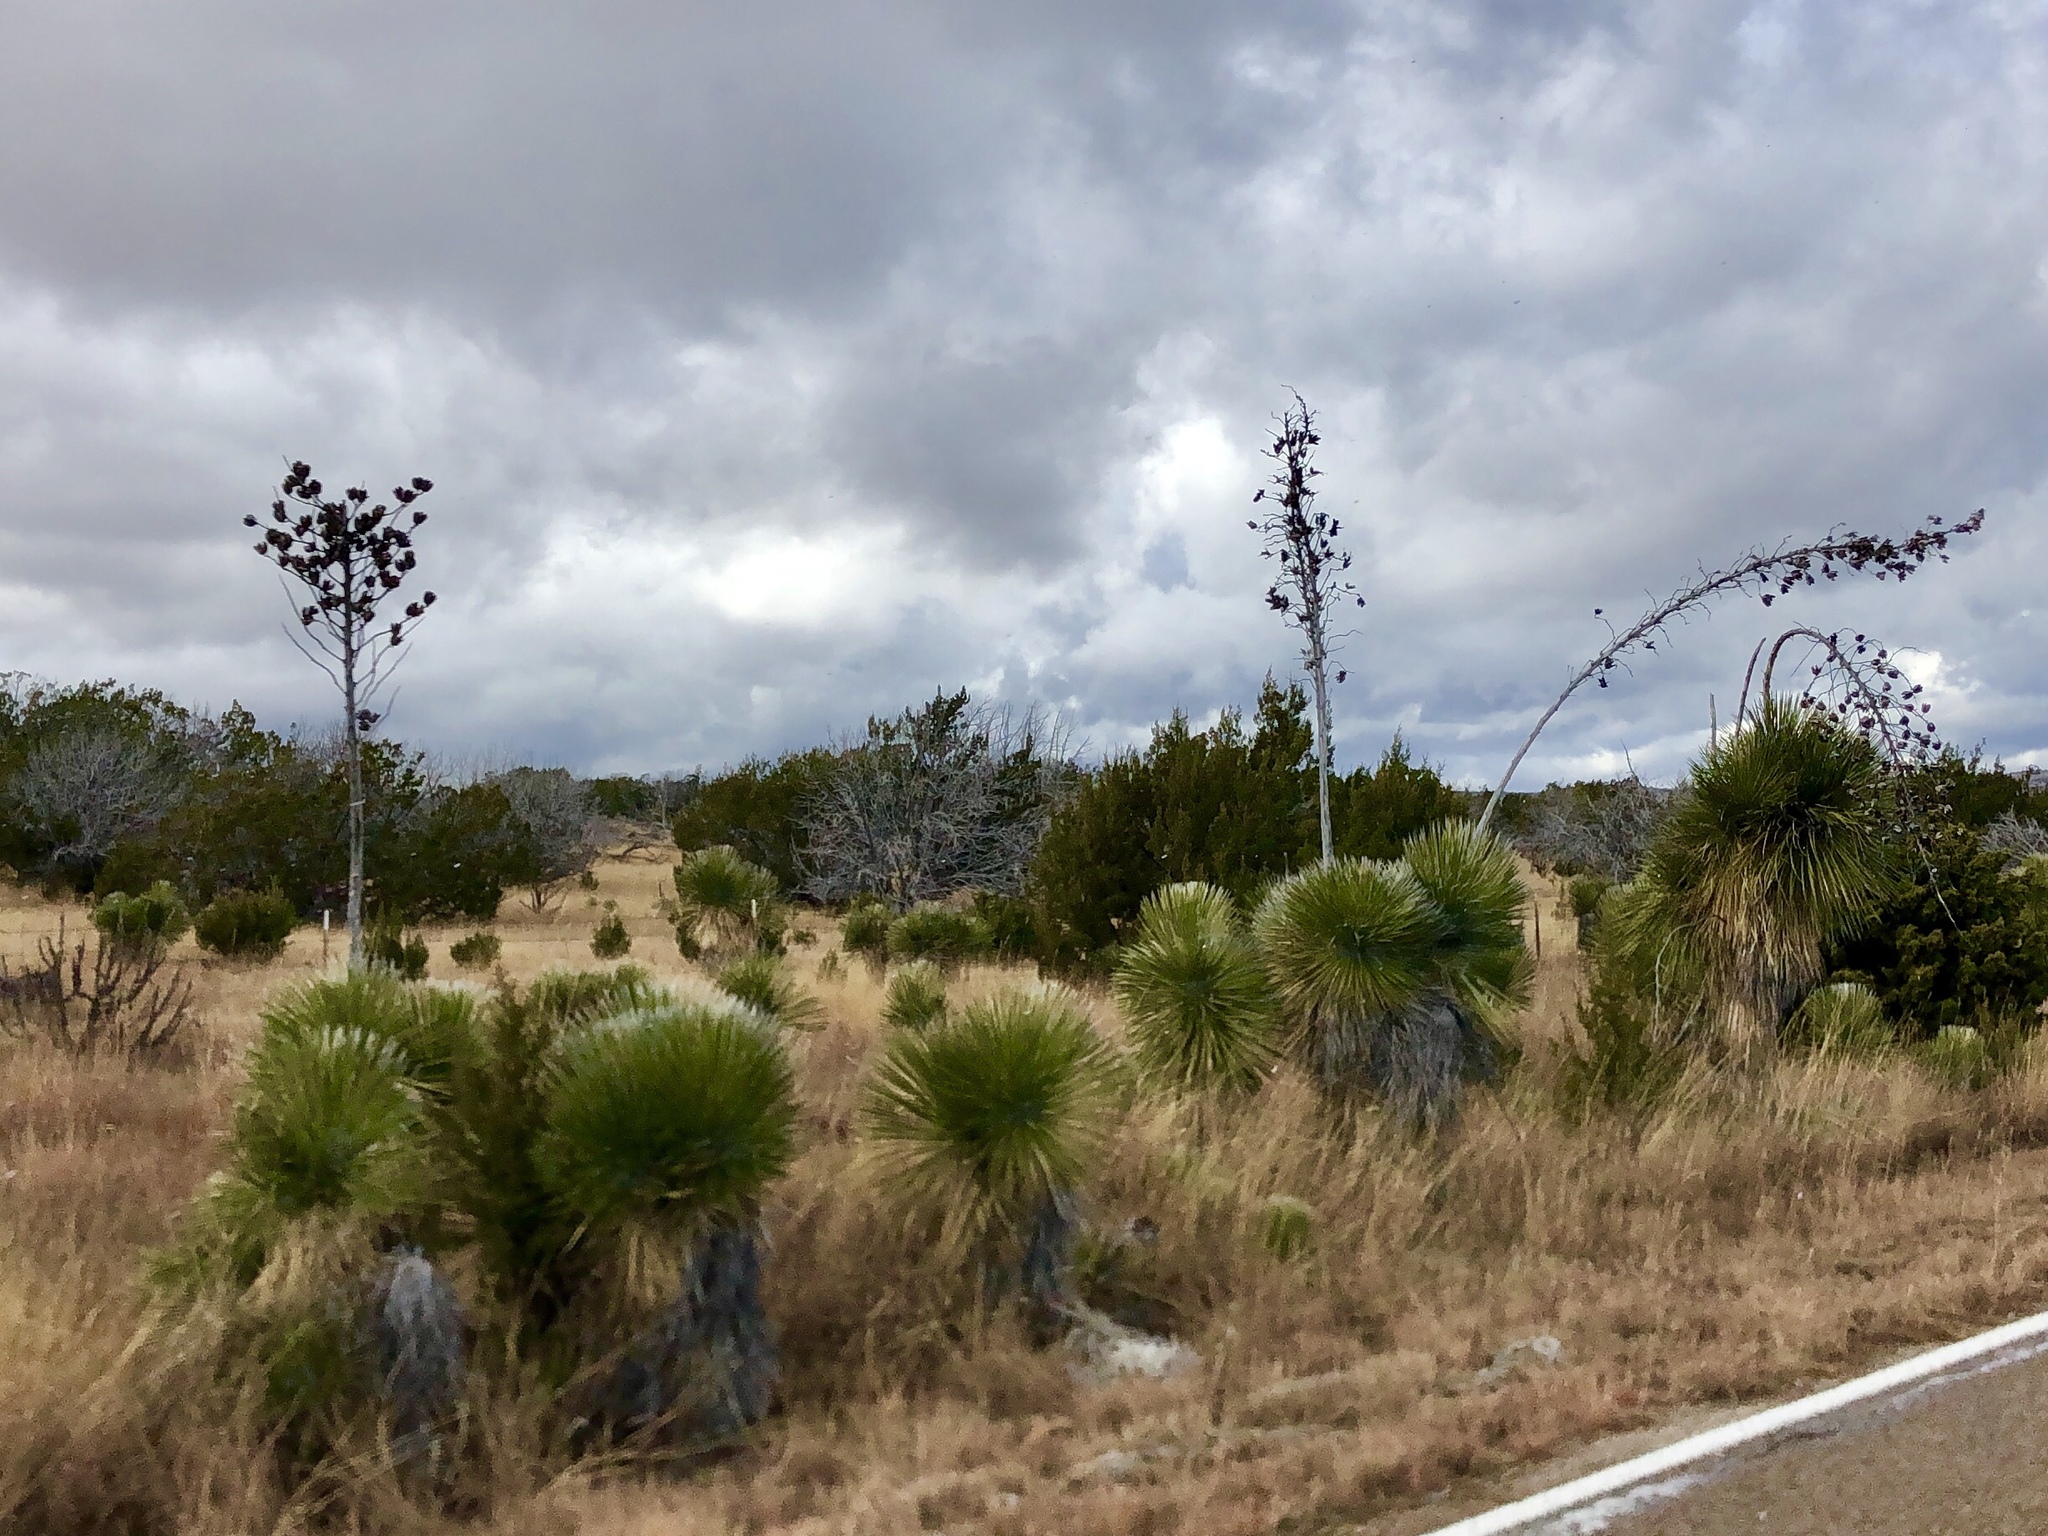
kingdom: Plantae
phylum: Tracheophyta
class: Liliopsida
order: Asparagales
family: Asparagaceae
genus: Yucca
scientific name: Yucca elata
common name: Palmella
